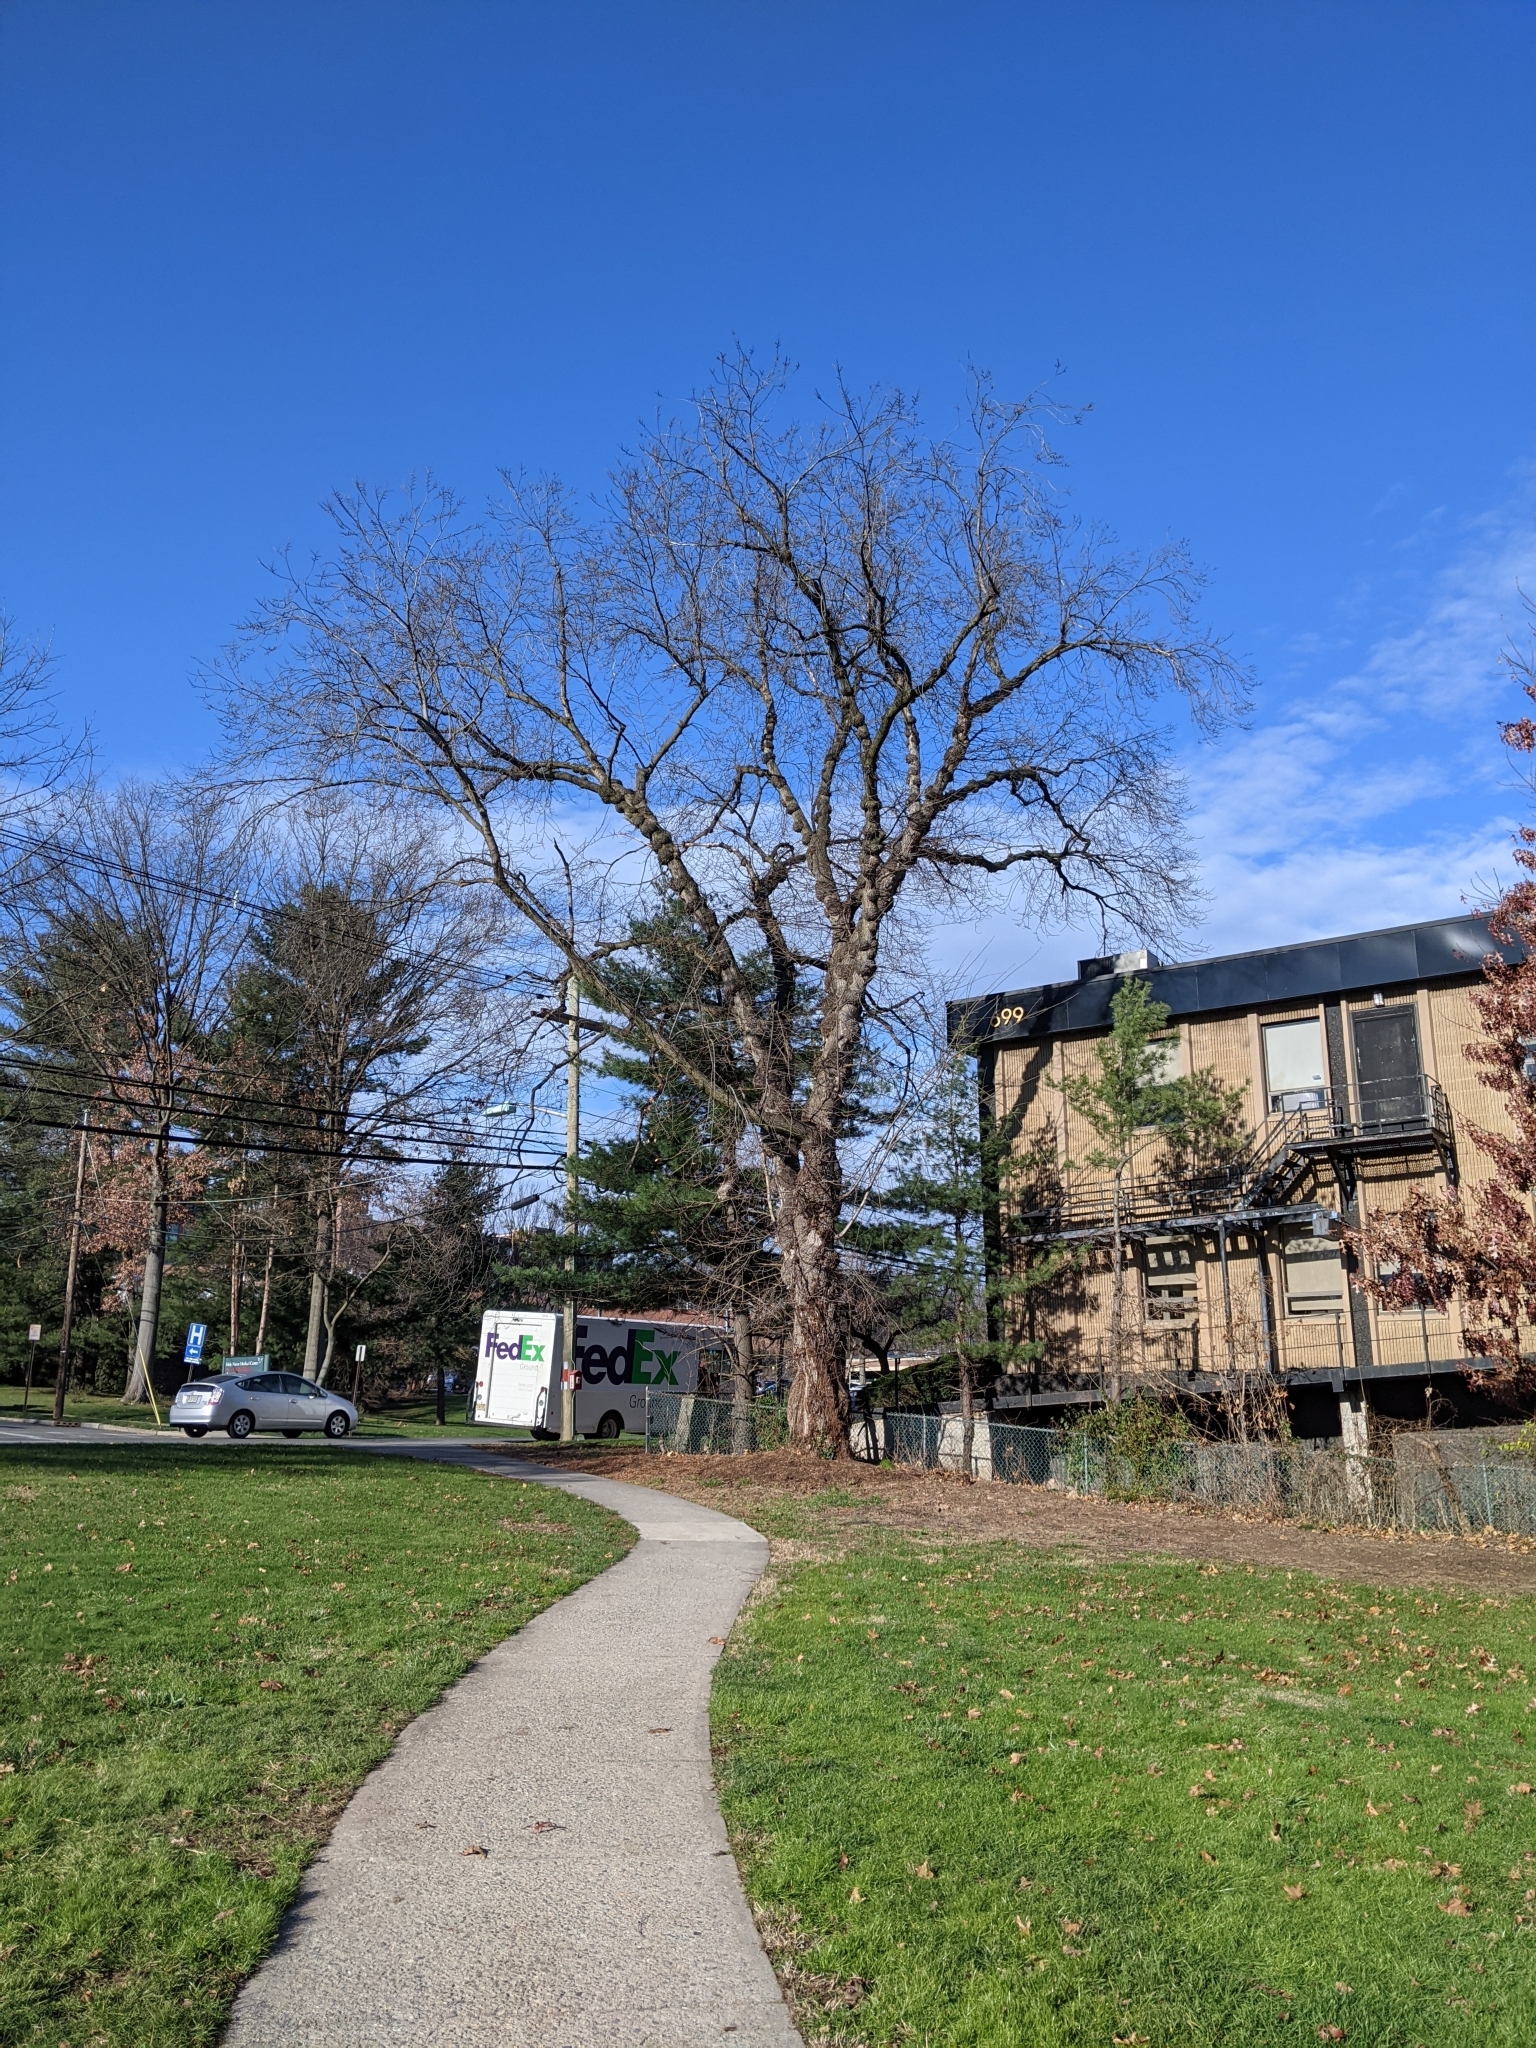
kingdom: Bacteria
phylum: Proteobacteria
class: Alphaproteobacteria
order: Rhizobiales
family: Rhizobiaceae
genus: Rhizobium
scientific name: Rhizobium Agrobacterium radiobacter
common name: Bacterial crown gall
